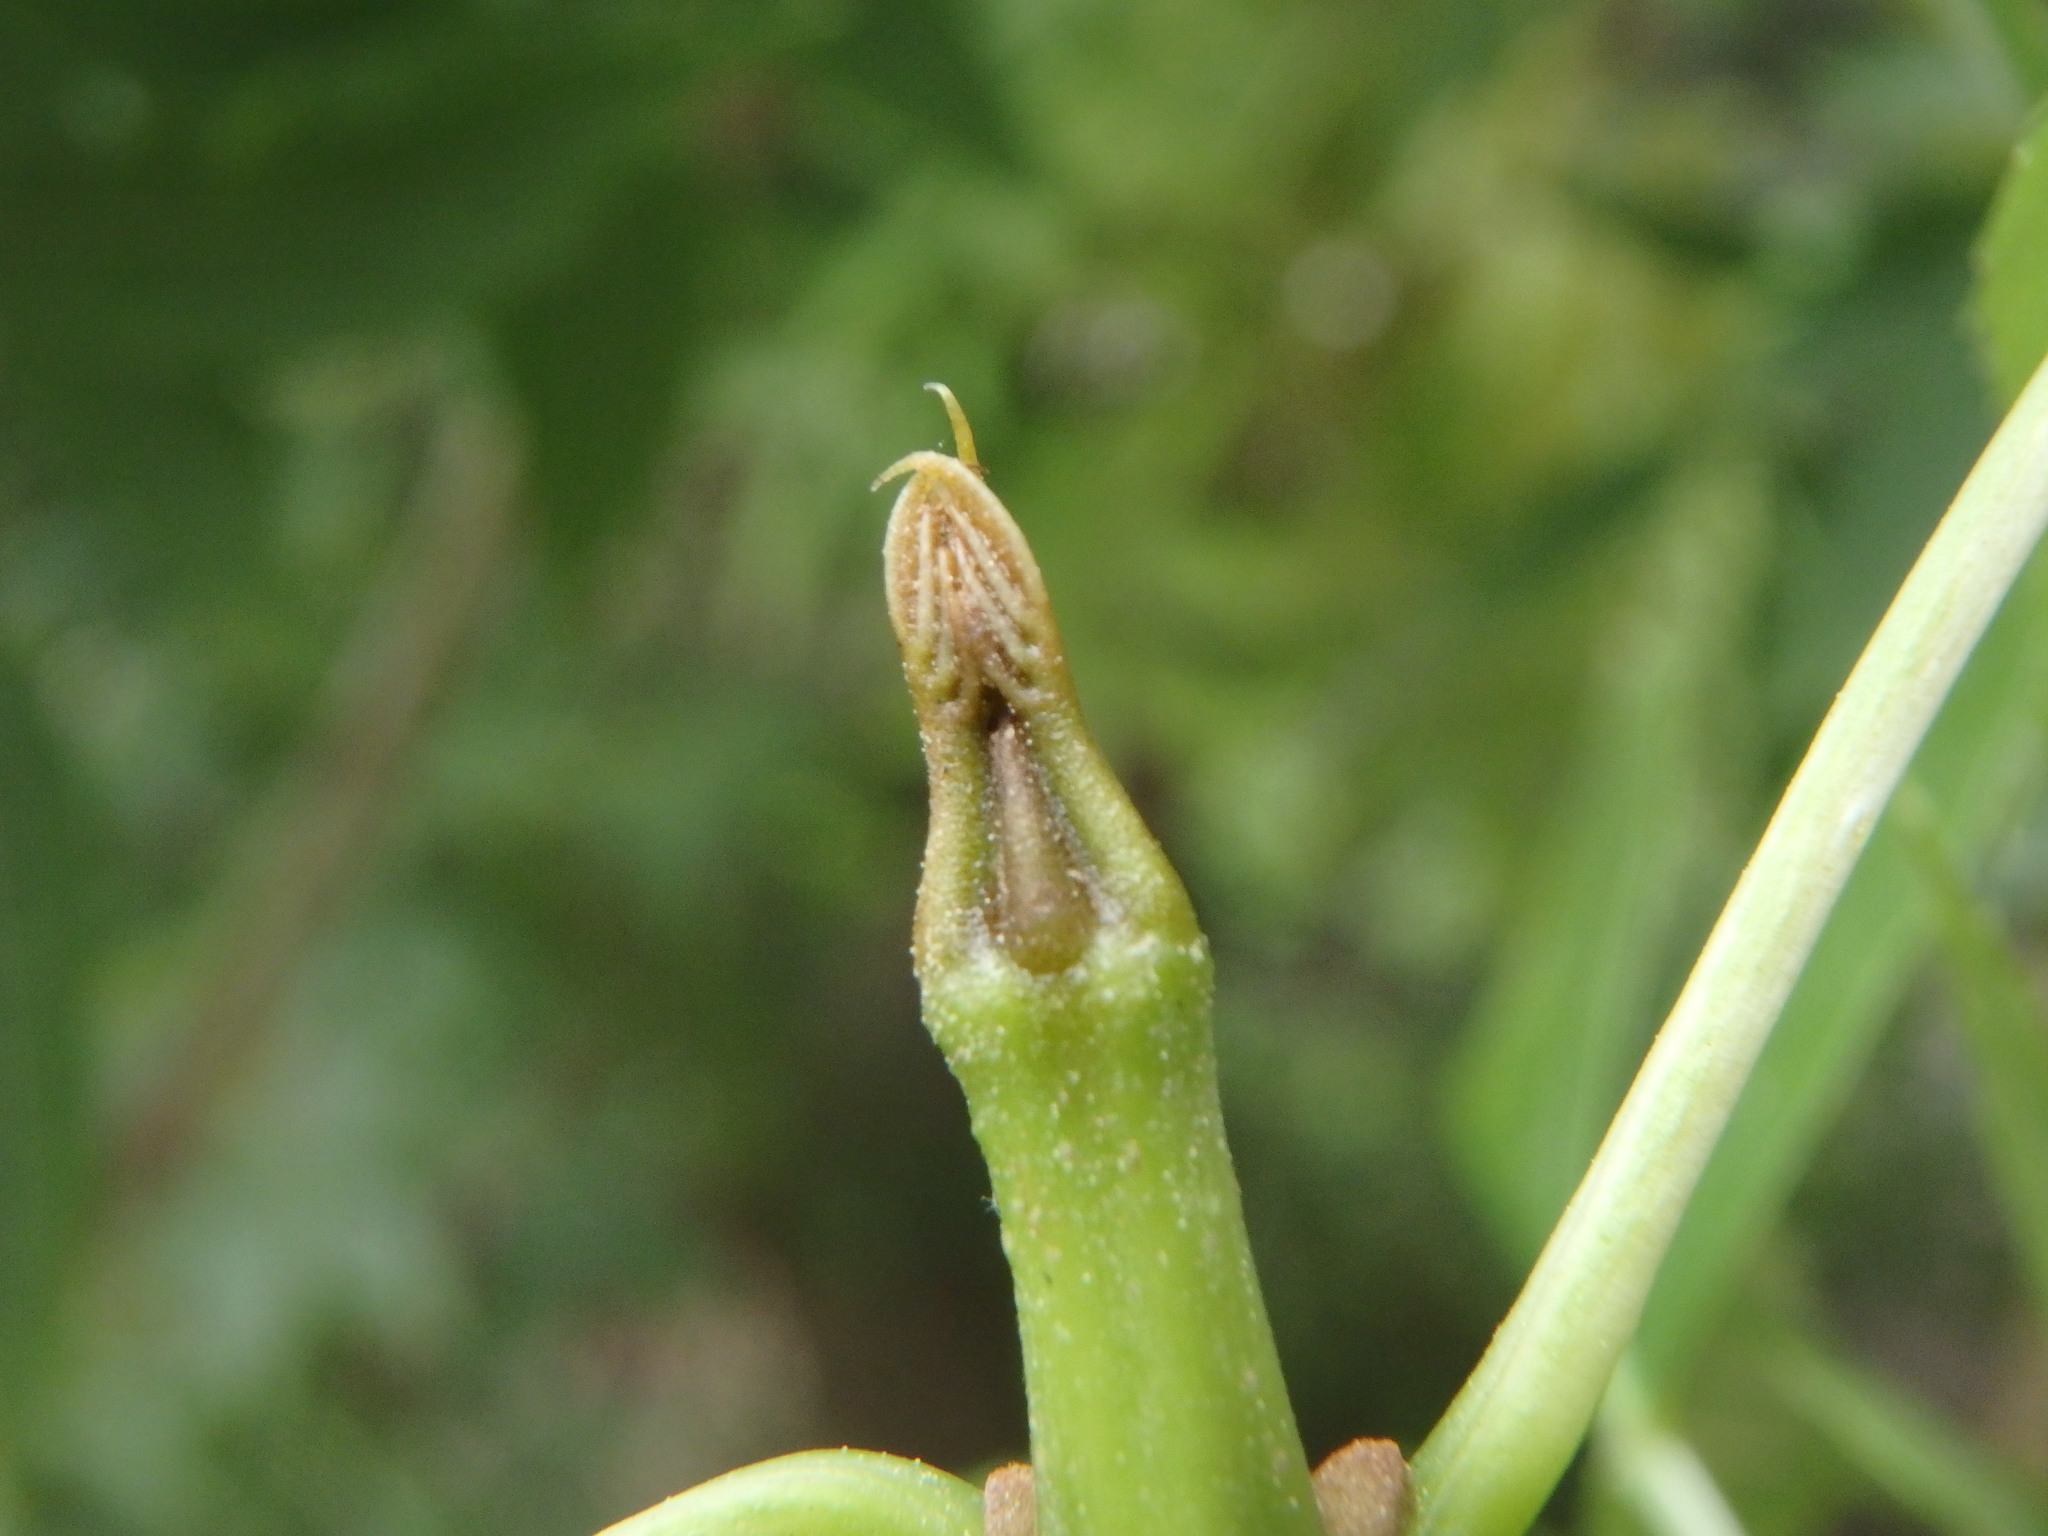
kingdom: Plantae
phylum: Tracheophyta
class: Magnoliopsida
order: Lamiales
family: Oleaceae
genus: Fraxinus
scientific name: Fraxinus angustifolia
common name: Narrow-leafed ash
